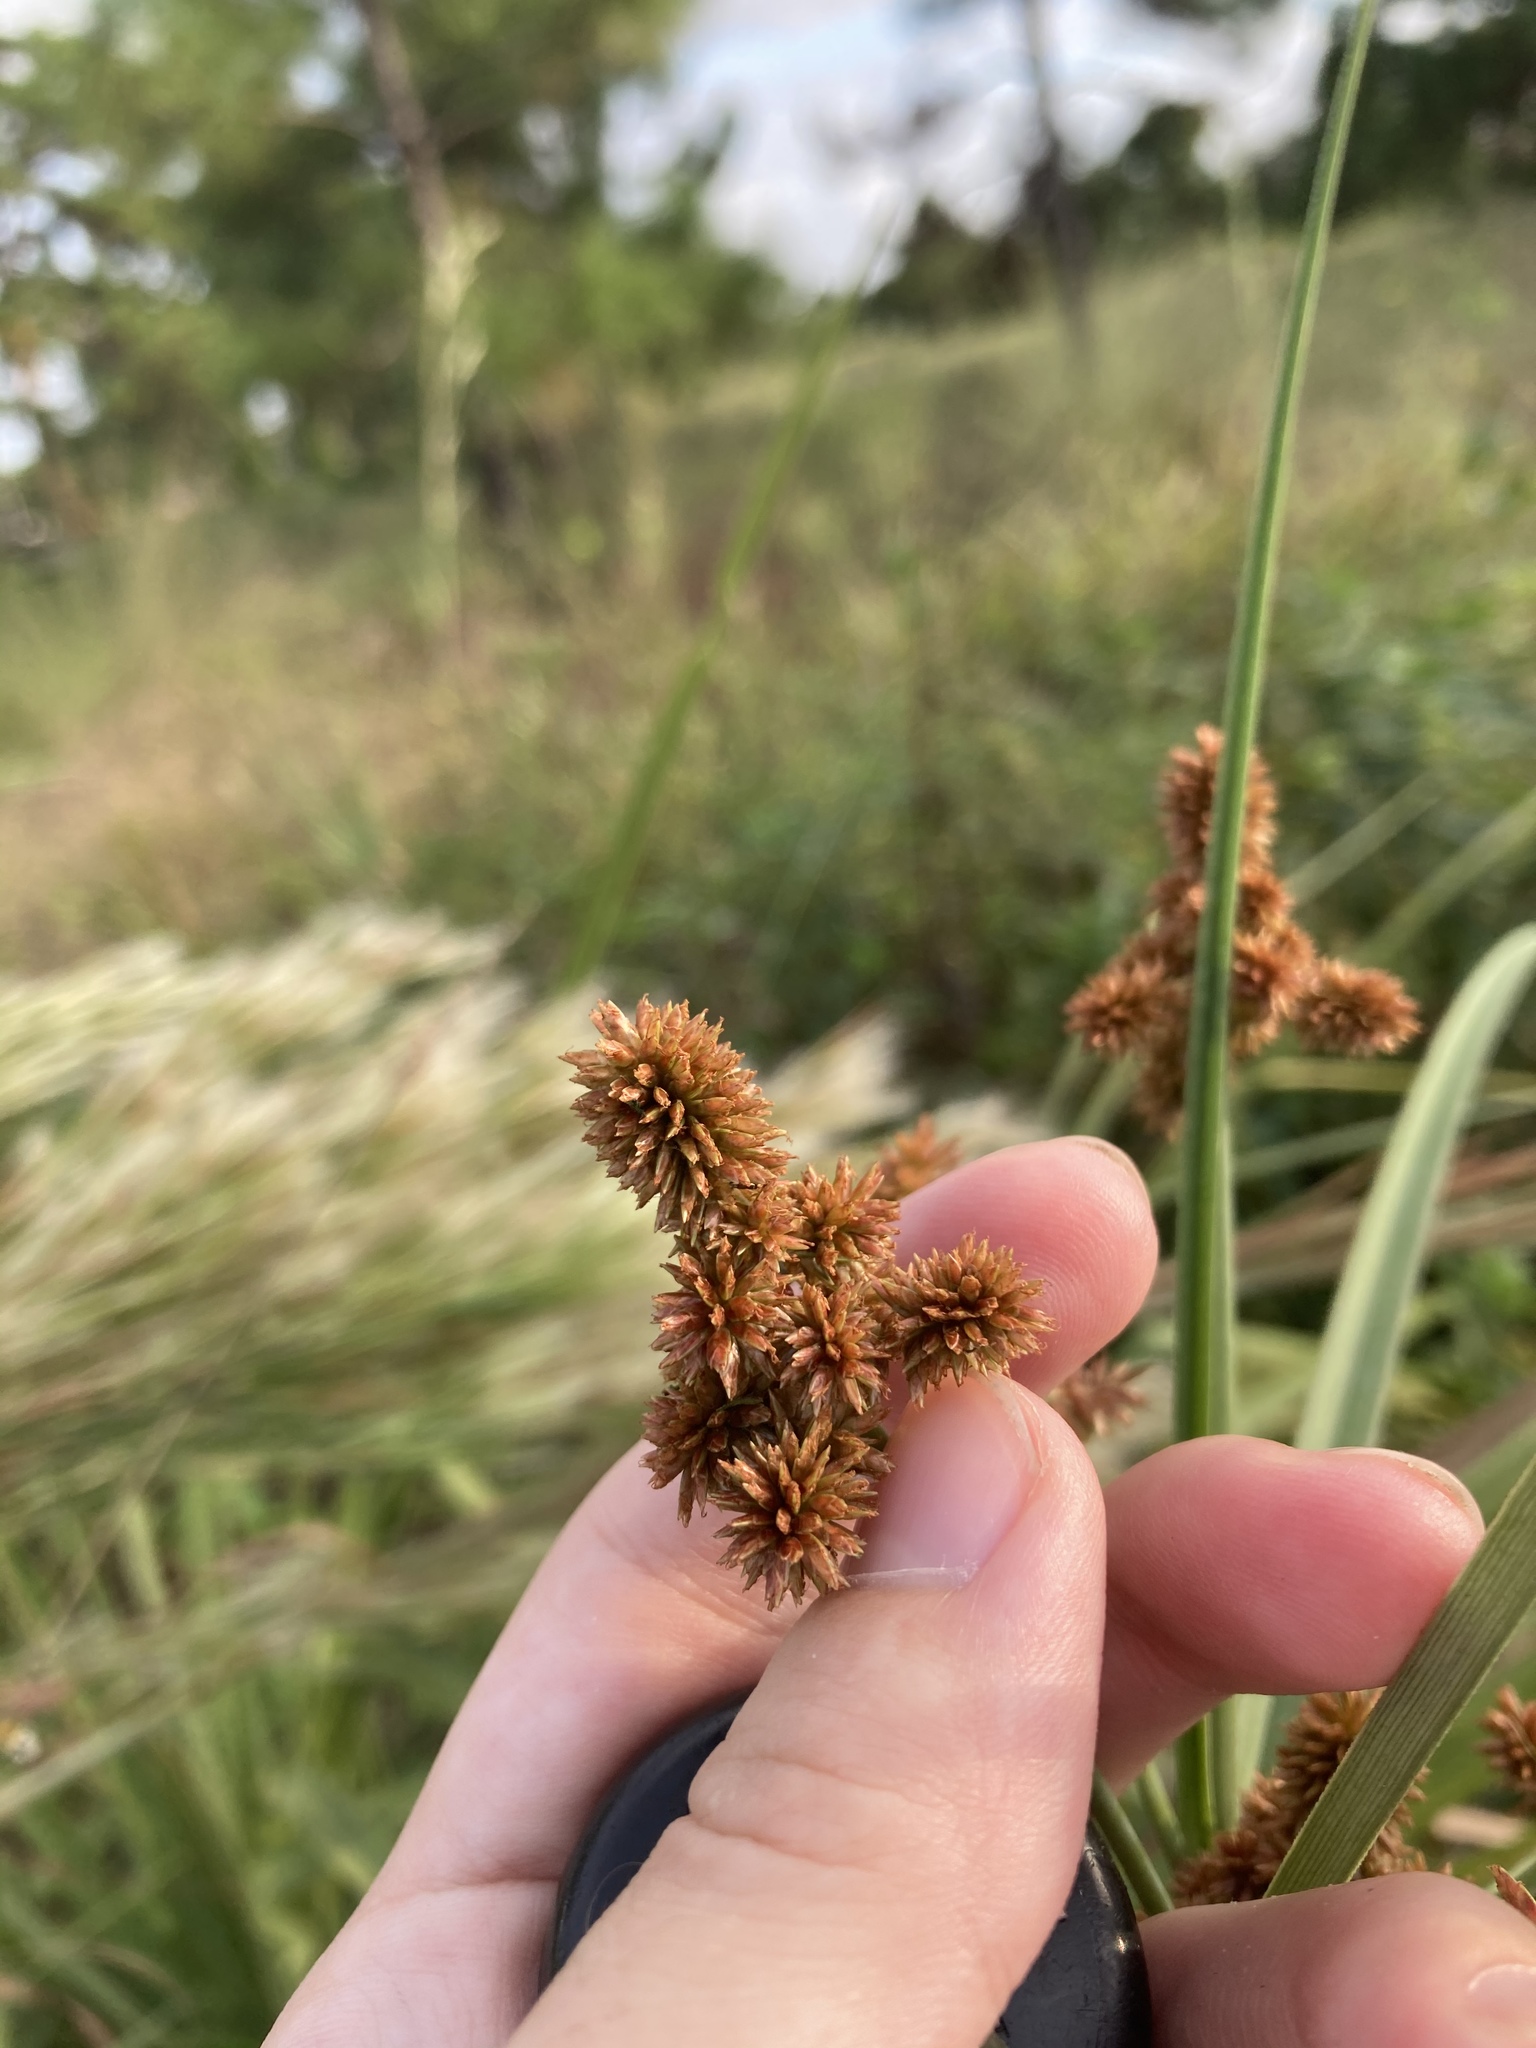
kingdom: Plantae
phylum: Tracheophyta
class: Liliopsida
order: Poales
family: Cyperaceae
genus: Cyperus
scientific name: Cyperus ligularis
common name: Swamp flat sedge
